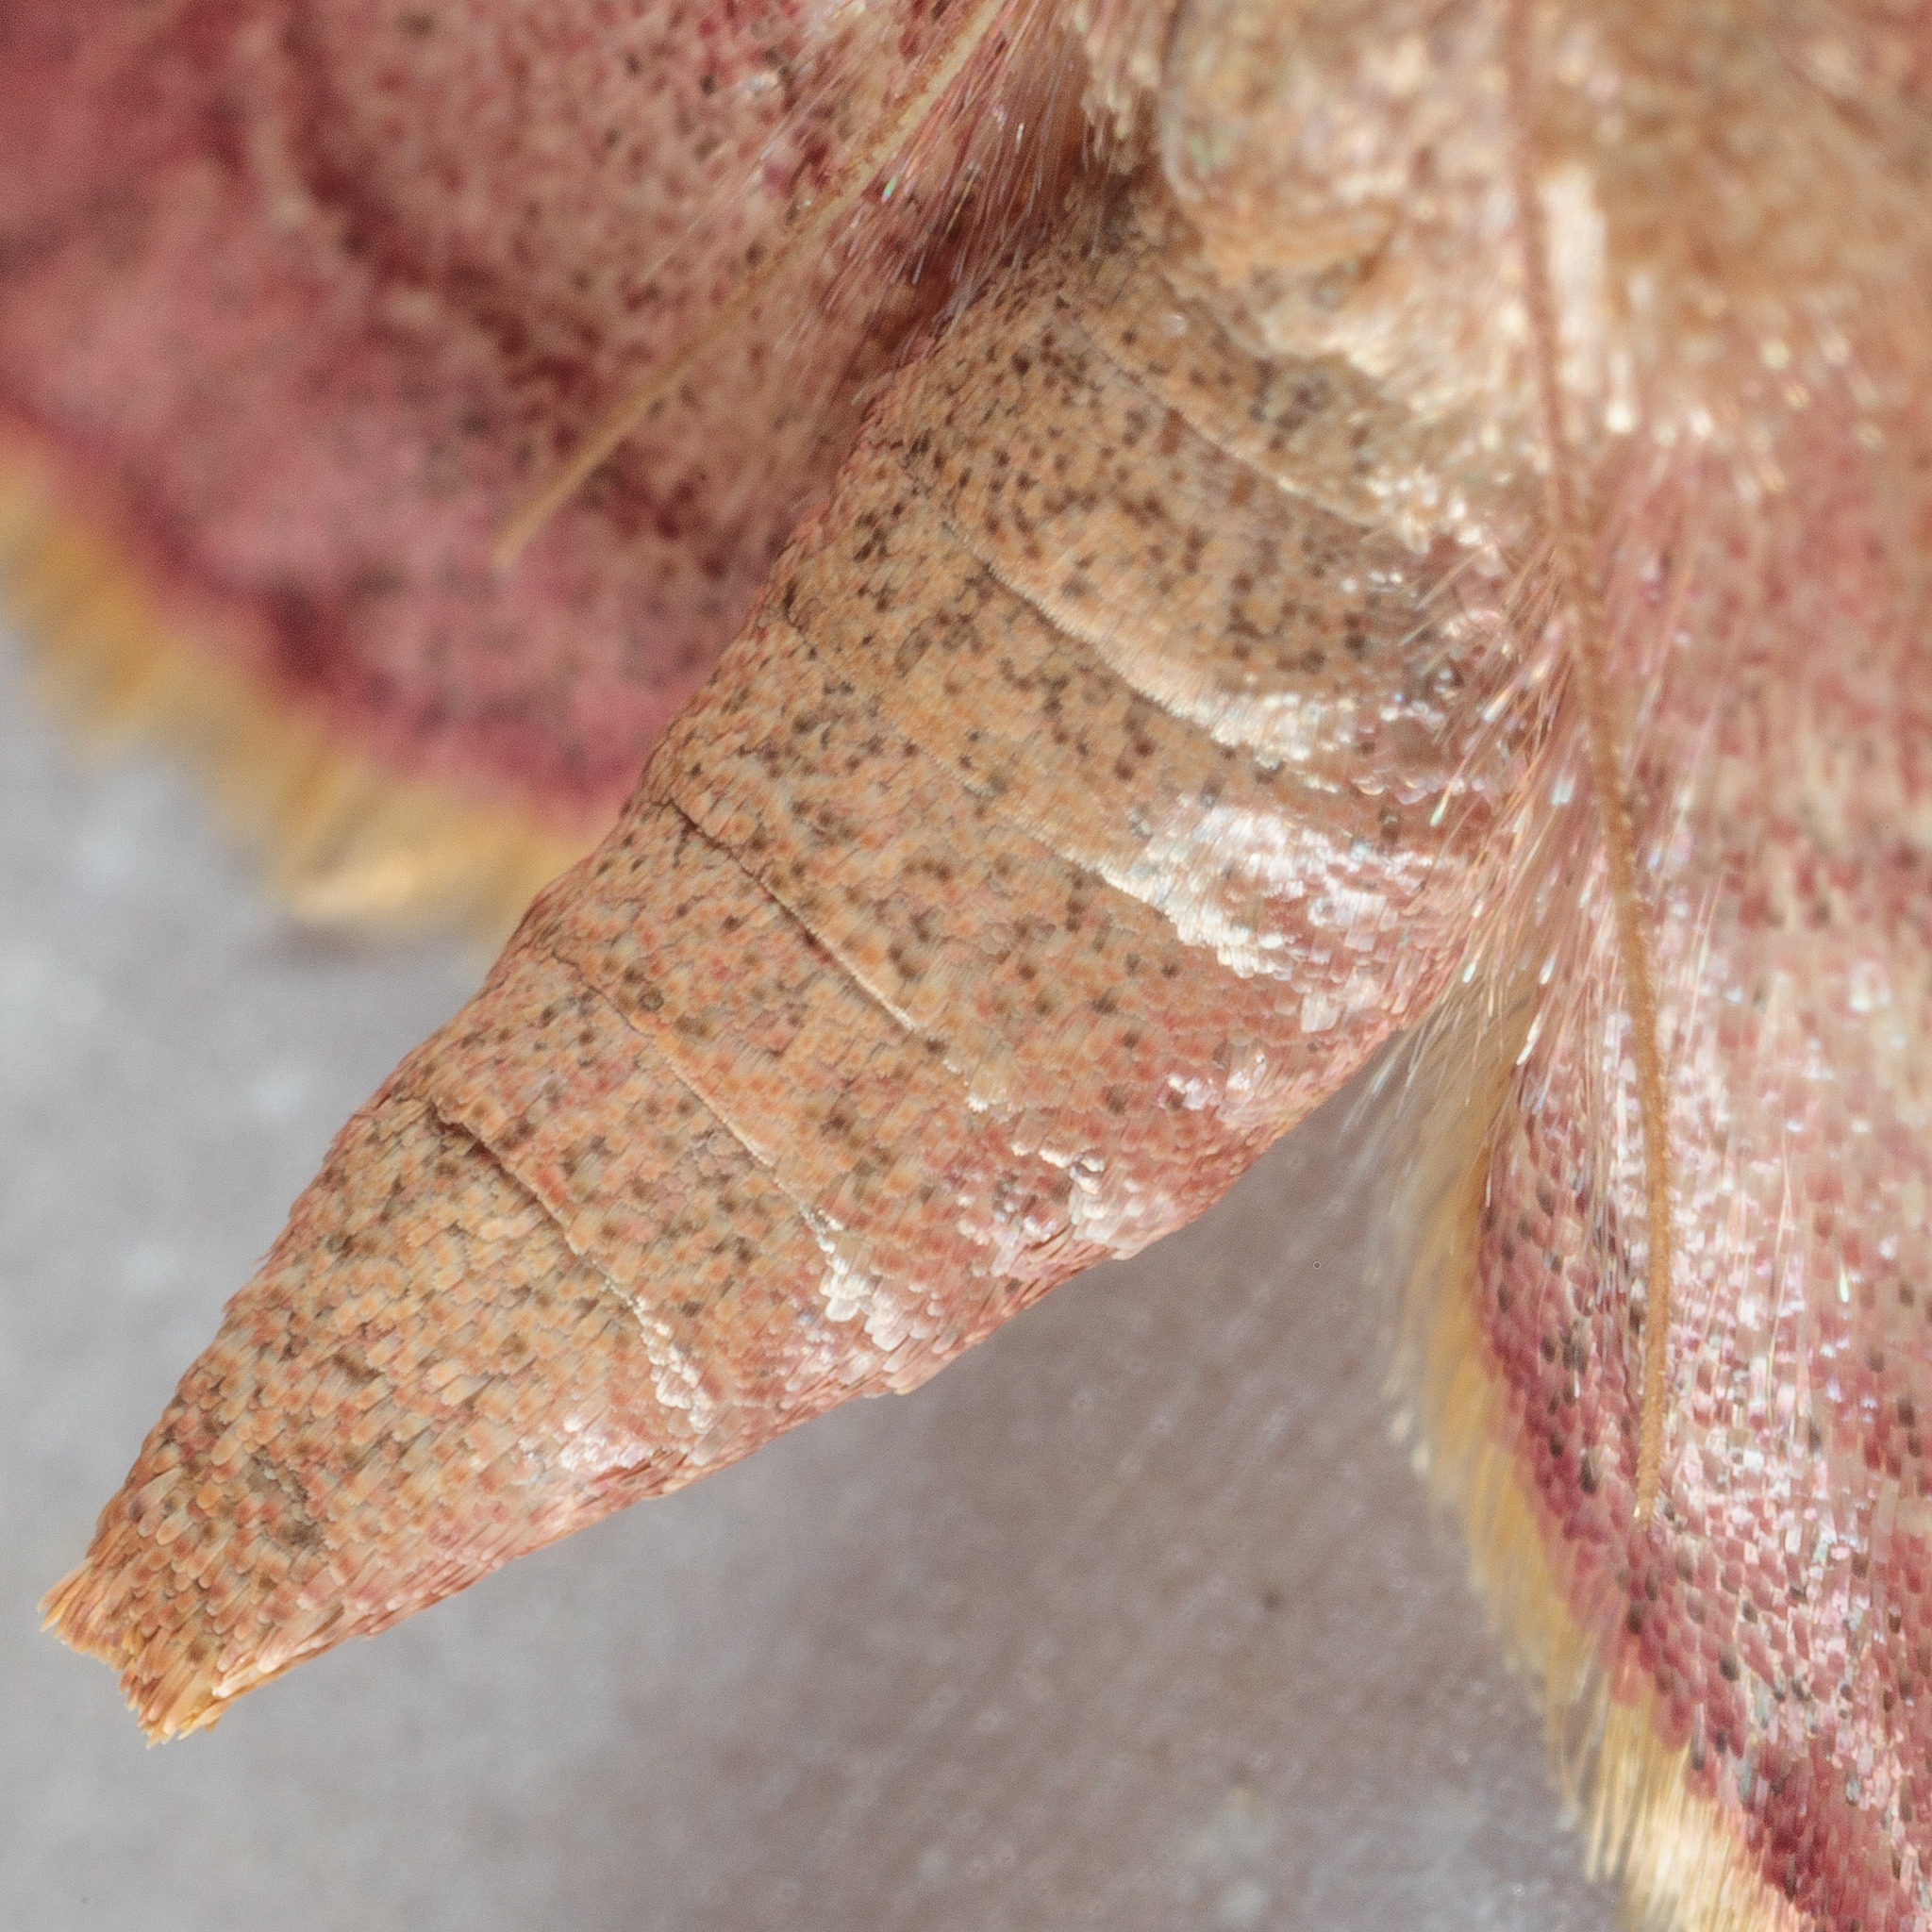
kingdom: Animalia
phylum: Arthropoda
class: Insecta
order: Lepidoptera
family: Pyralidae
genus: Hypsopygia
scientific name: Hypsopygia olinalis
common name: Yellow-fringed dolichomia moth
